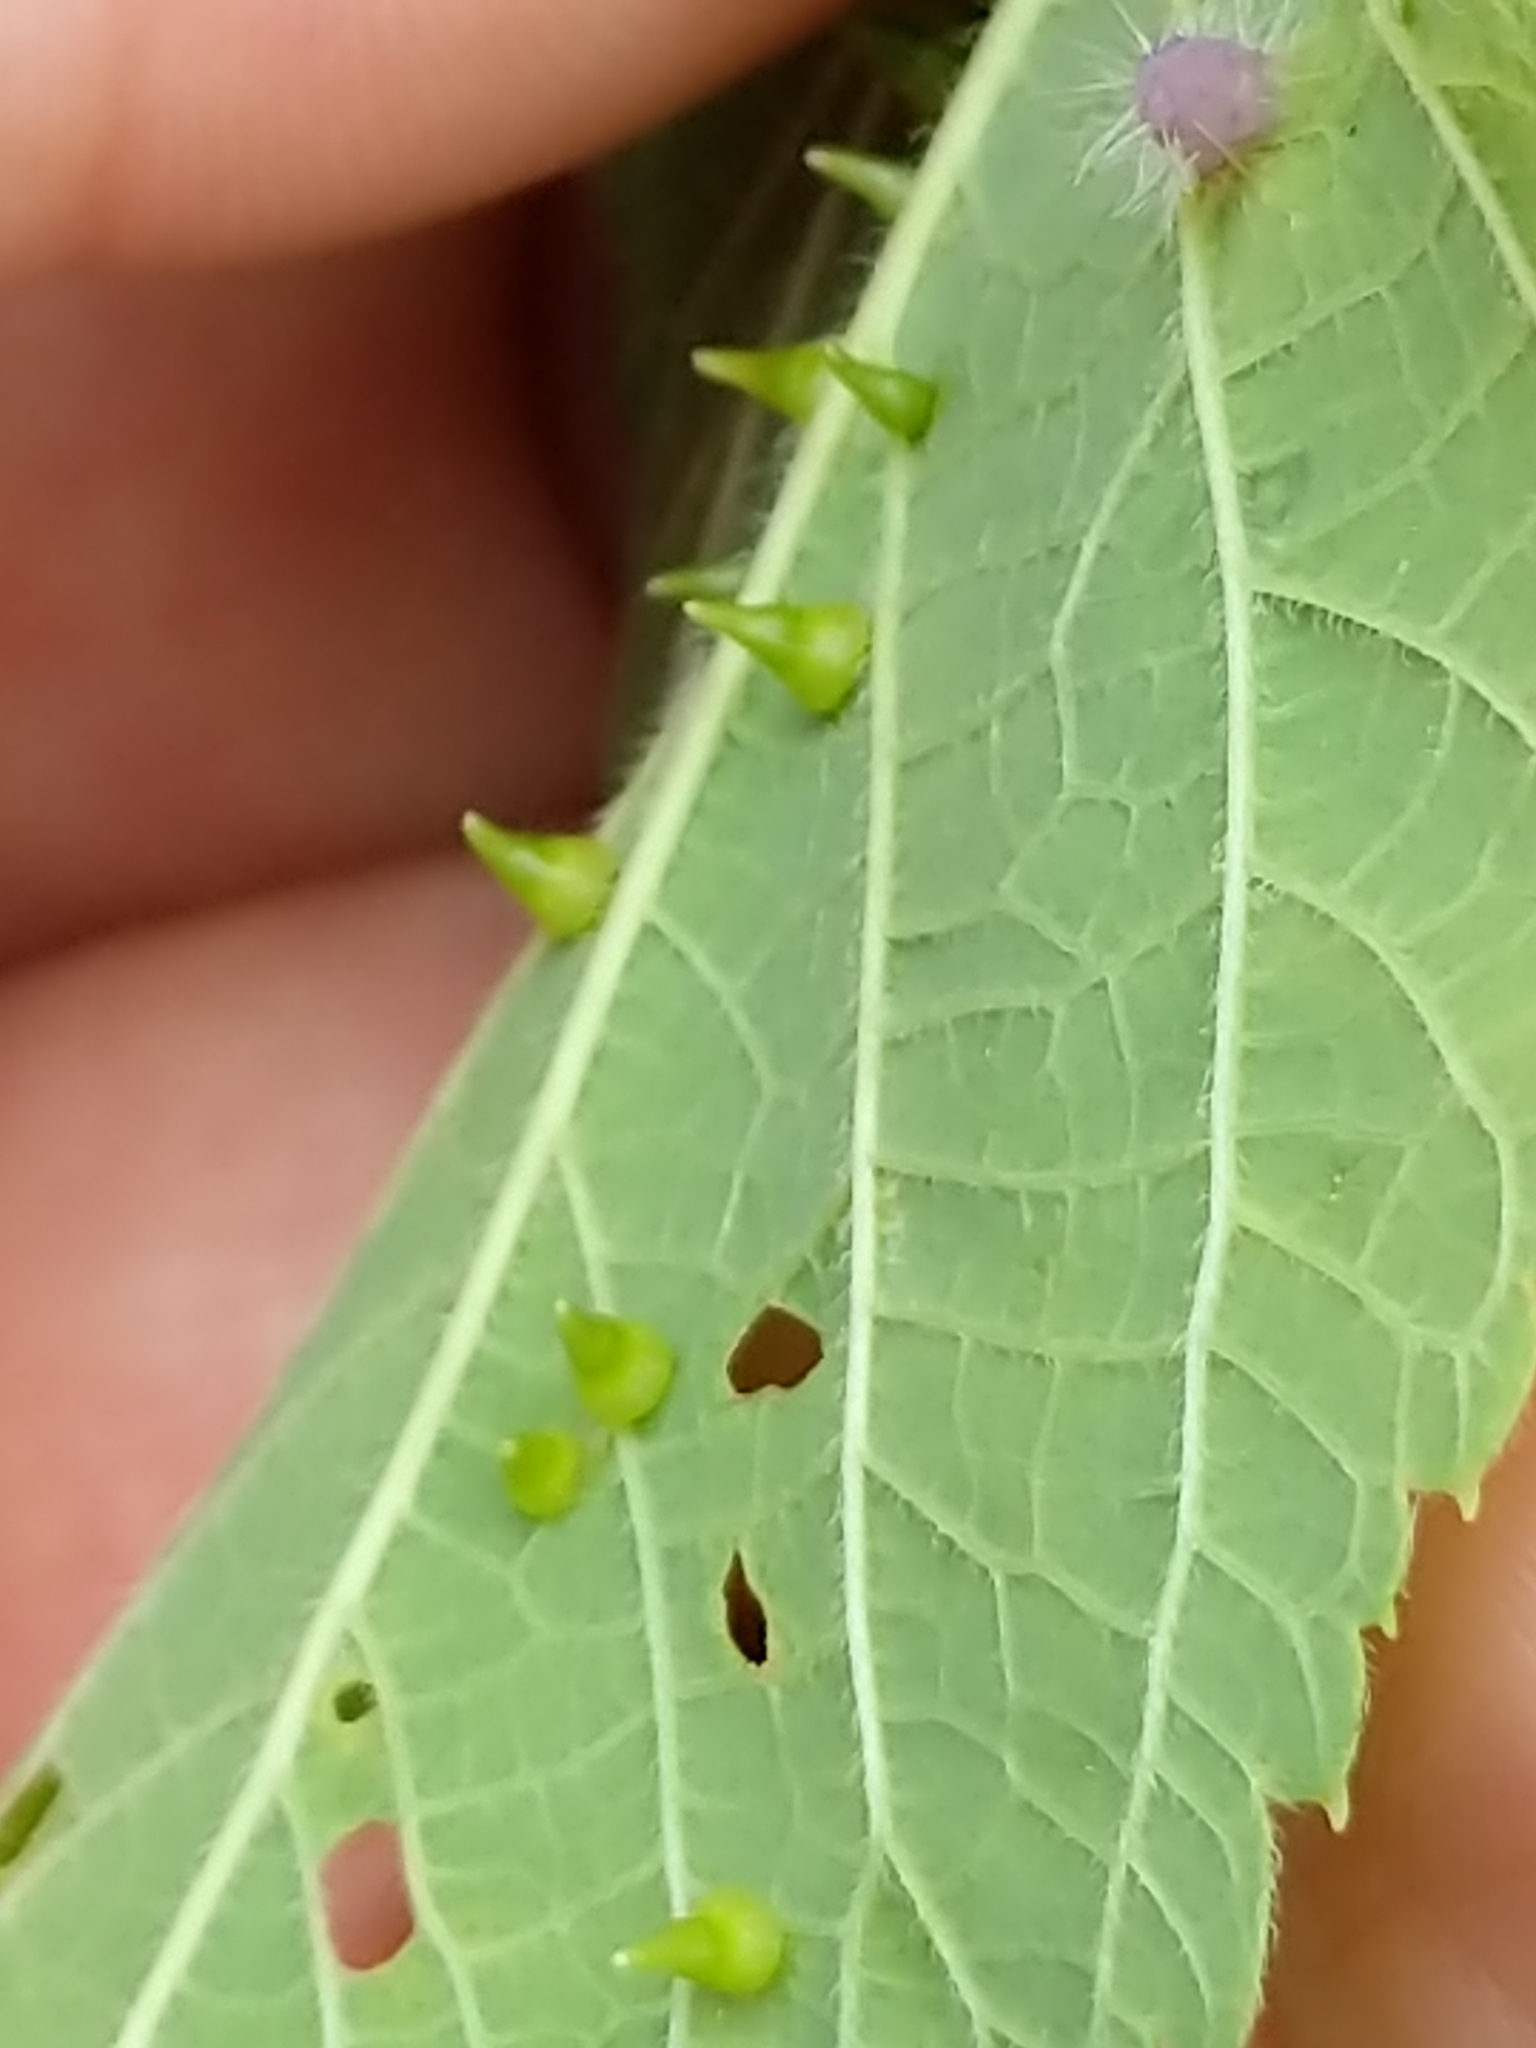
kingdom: Animalia
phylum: Arthropoda
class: Insecta
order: Diptera
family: Cecidomyiidae
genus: Celticecis
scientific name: Celticecis spiniformis
